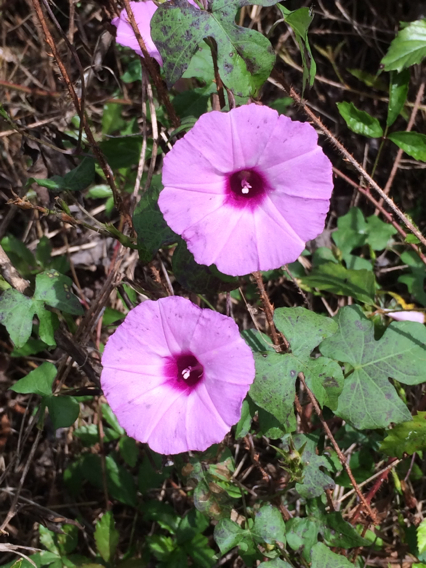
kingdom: Plantae
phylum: Tracheophyta
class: Magnoliopsida
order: Solanales
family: Convolvulaceae
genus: Ipomoea
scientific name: Ipomoea cordatotriloba
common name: Cotton morning glory
